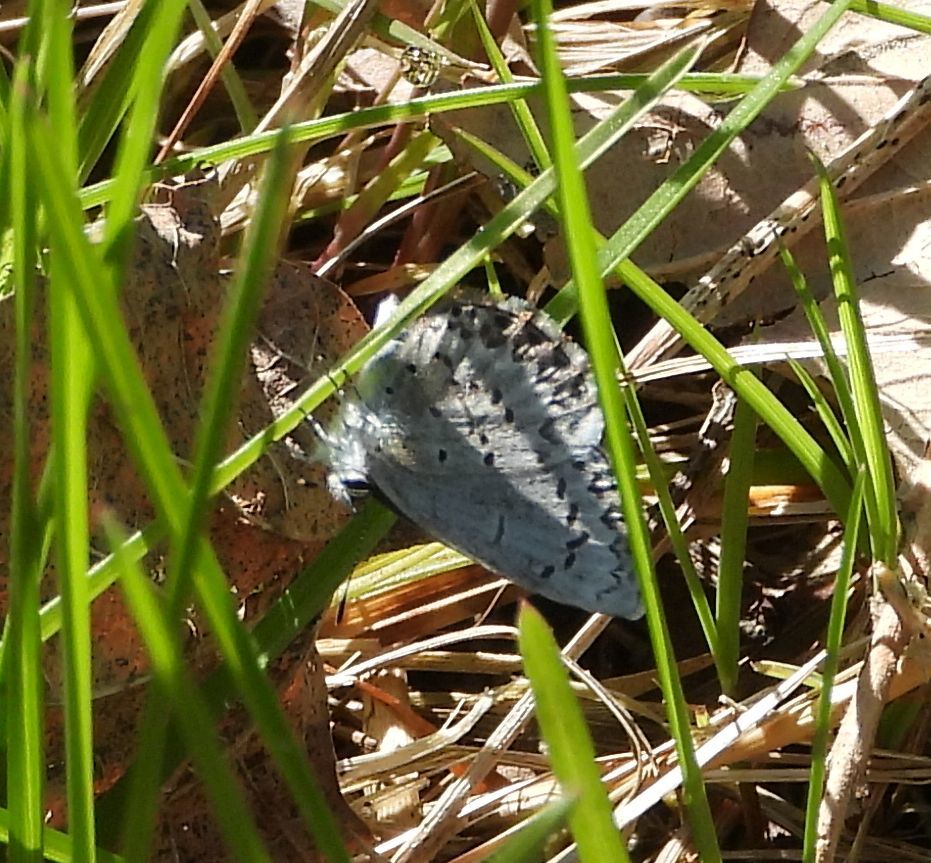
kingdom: Animalia
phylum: Arthropoda
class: Insecta
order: Lepidoptera
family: Lycaenidae
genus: Celastrina
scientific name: Celastrina lucia
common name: Lucia azure
